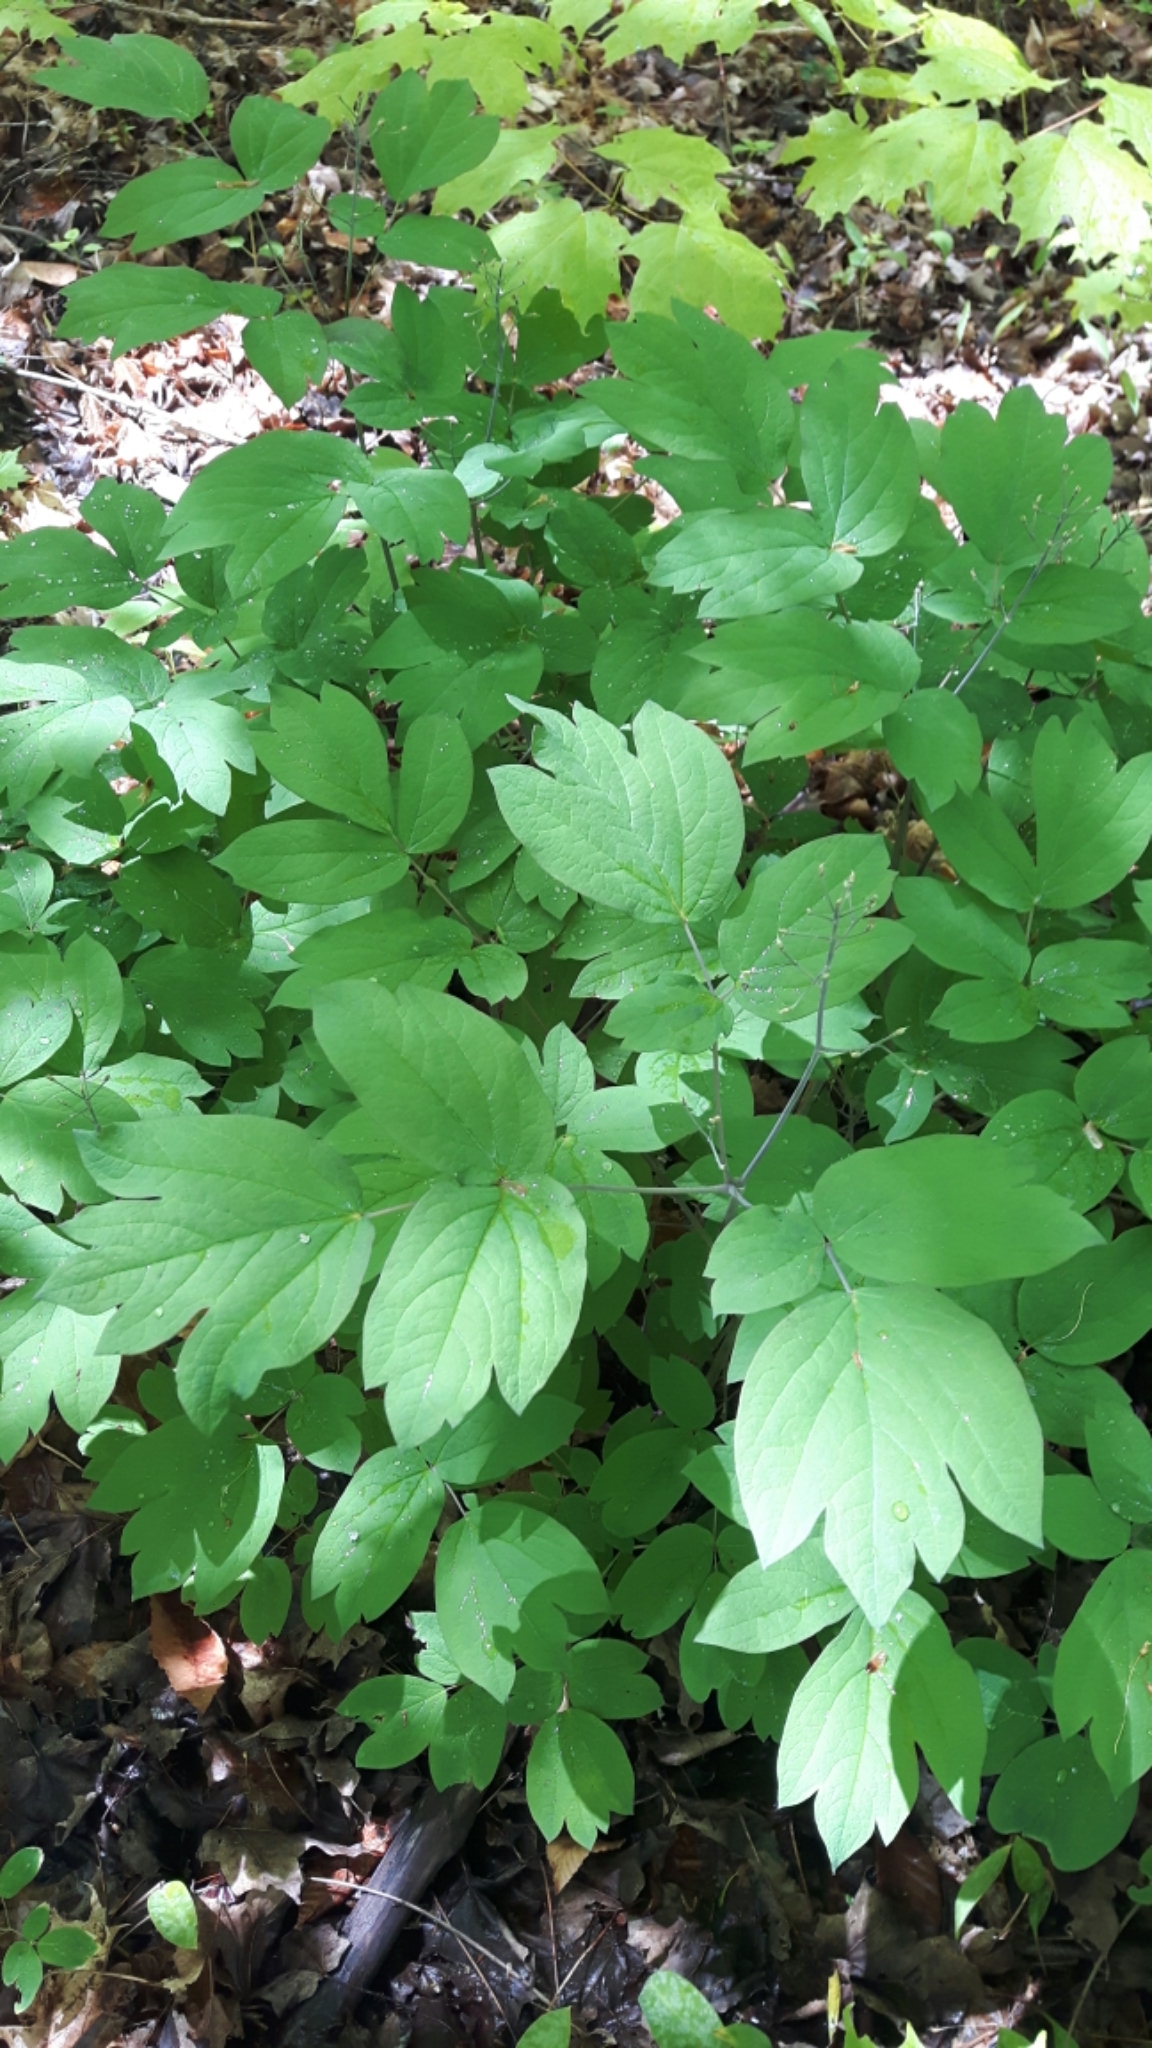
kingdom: Plantae
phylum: Tracheophyta
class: Magnoliopsida
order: Ranunculales
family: Berberidaceae
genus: Caulophyllum
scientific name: Caulophyllum giganteum
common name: Blue cohosh
